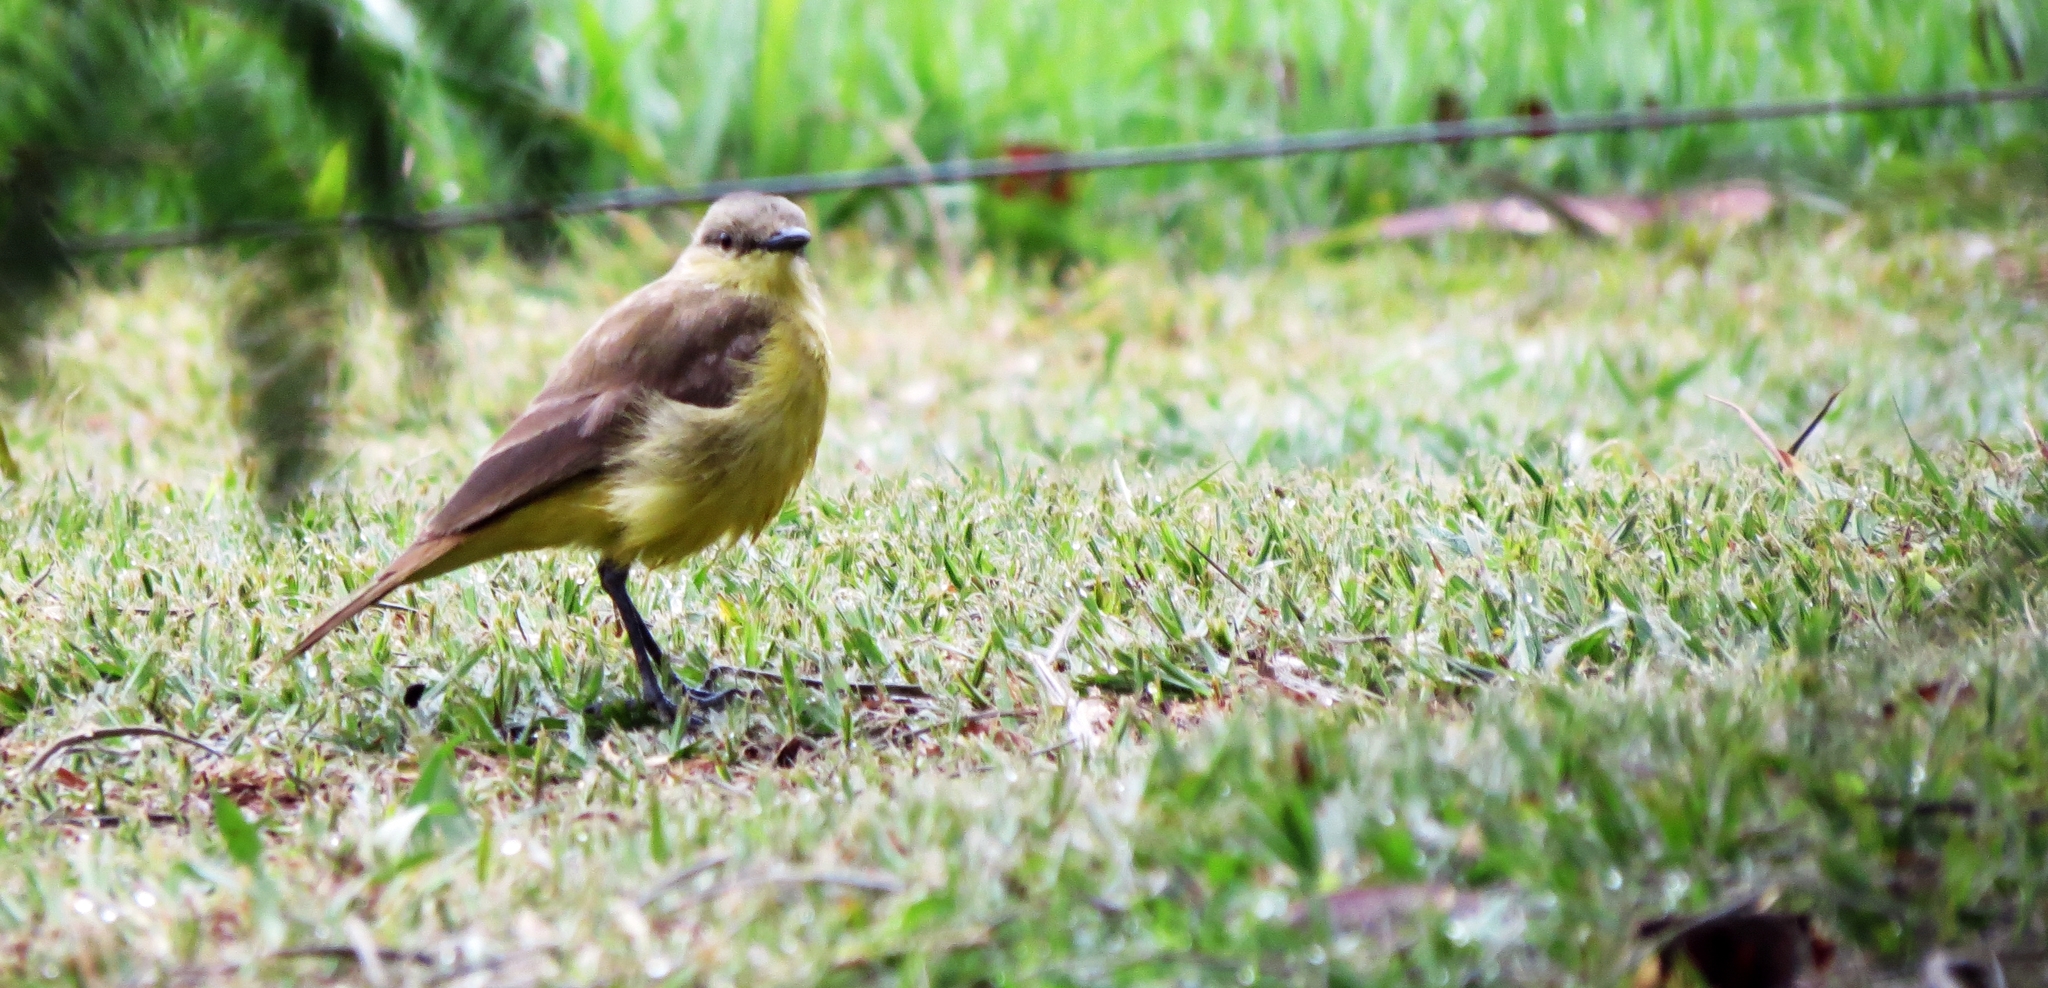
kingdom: Animalia
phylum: Chordata
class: Aves
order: Passeriformes
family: Tyrannidae
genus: Machetornis
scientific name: Machetornis rixosa
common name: Cattle tyrant
